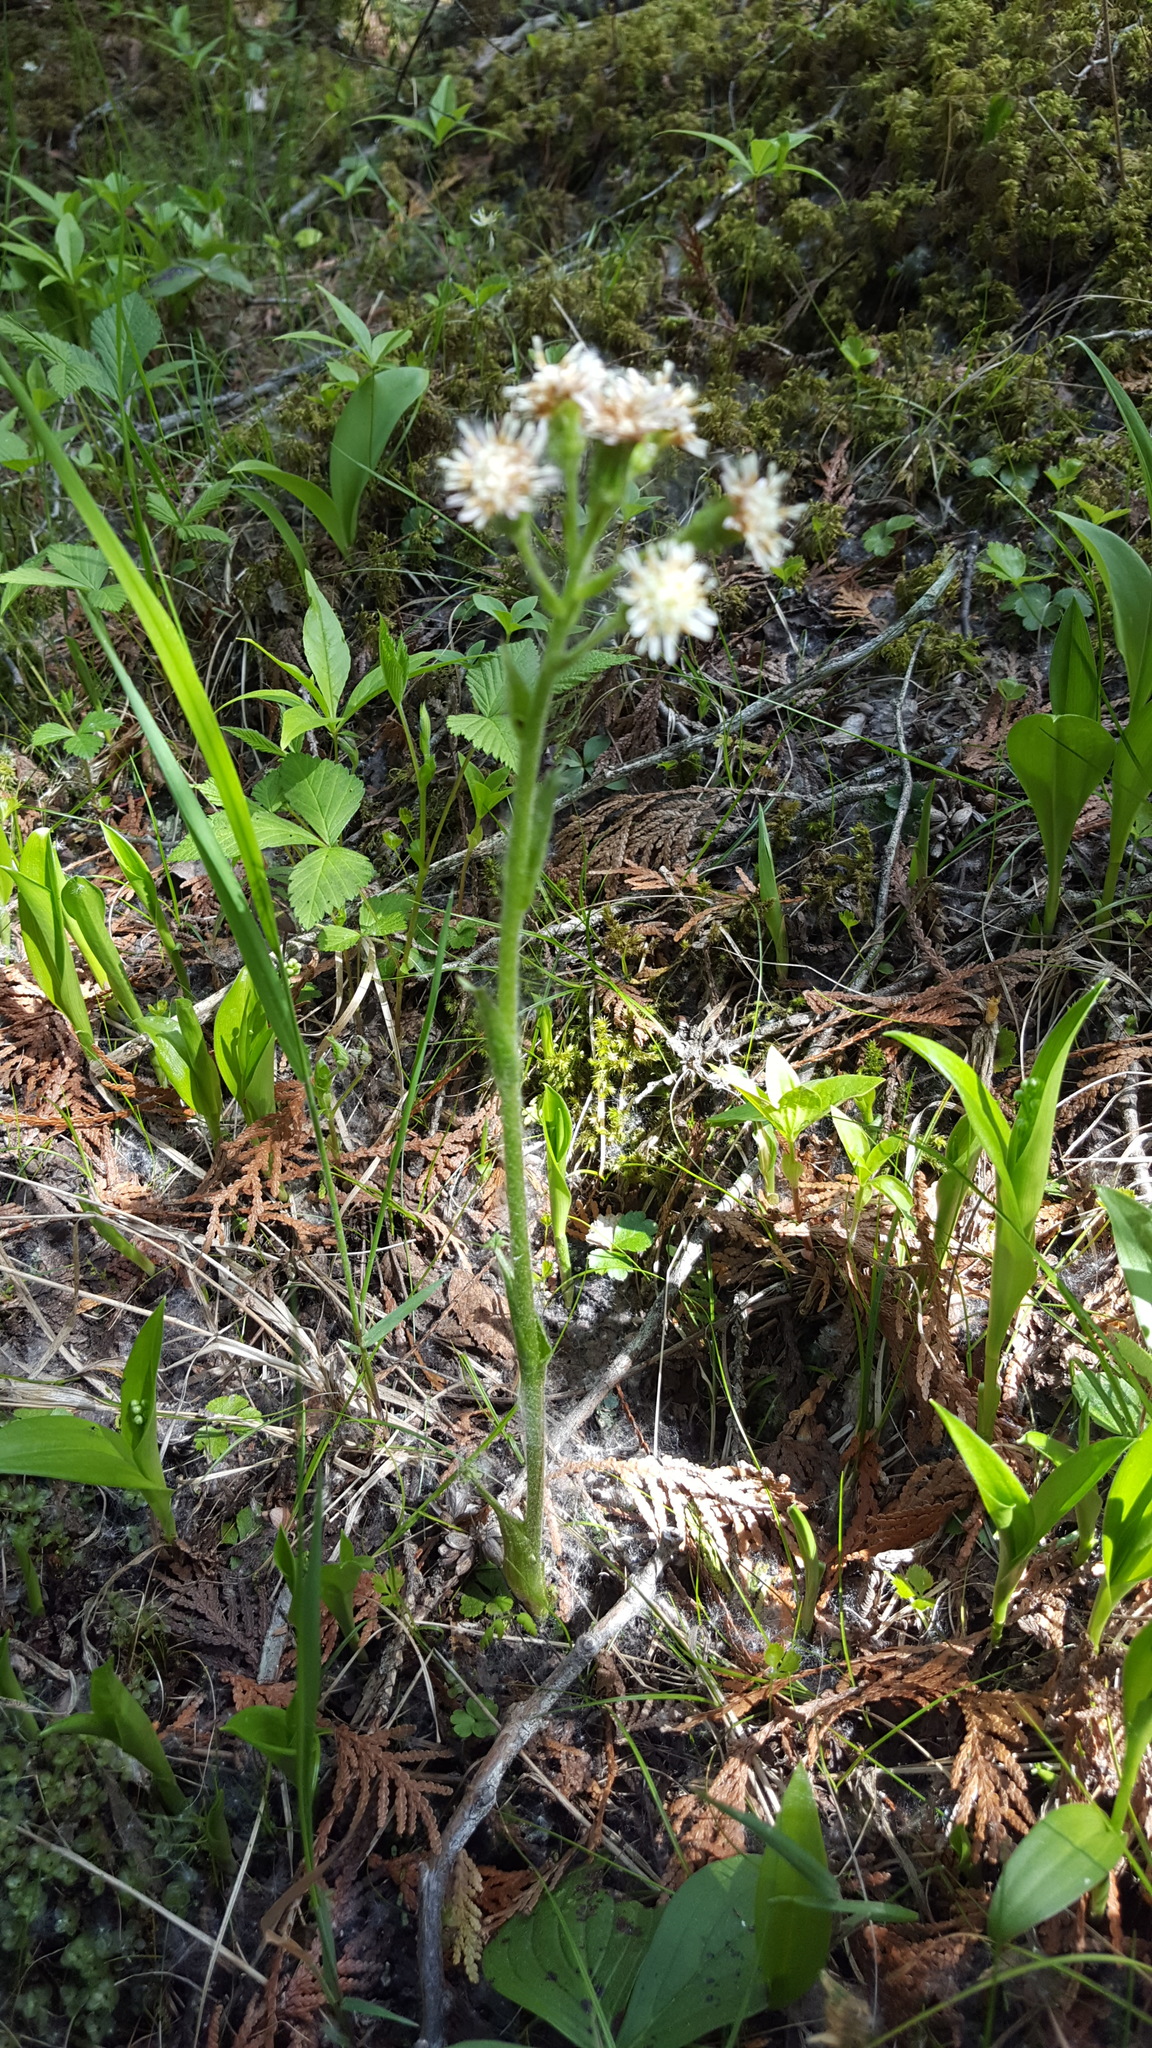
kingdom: Plantae
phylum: Tracheophyta
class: Magnoliopsida
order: Asterales
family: Asteraceae
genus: Petasites
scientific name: Petasites frigidus
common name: Arctic butterbur
